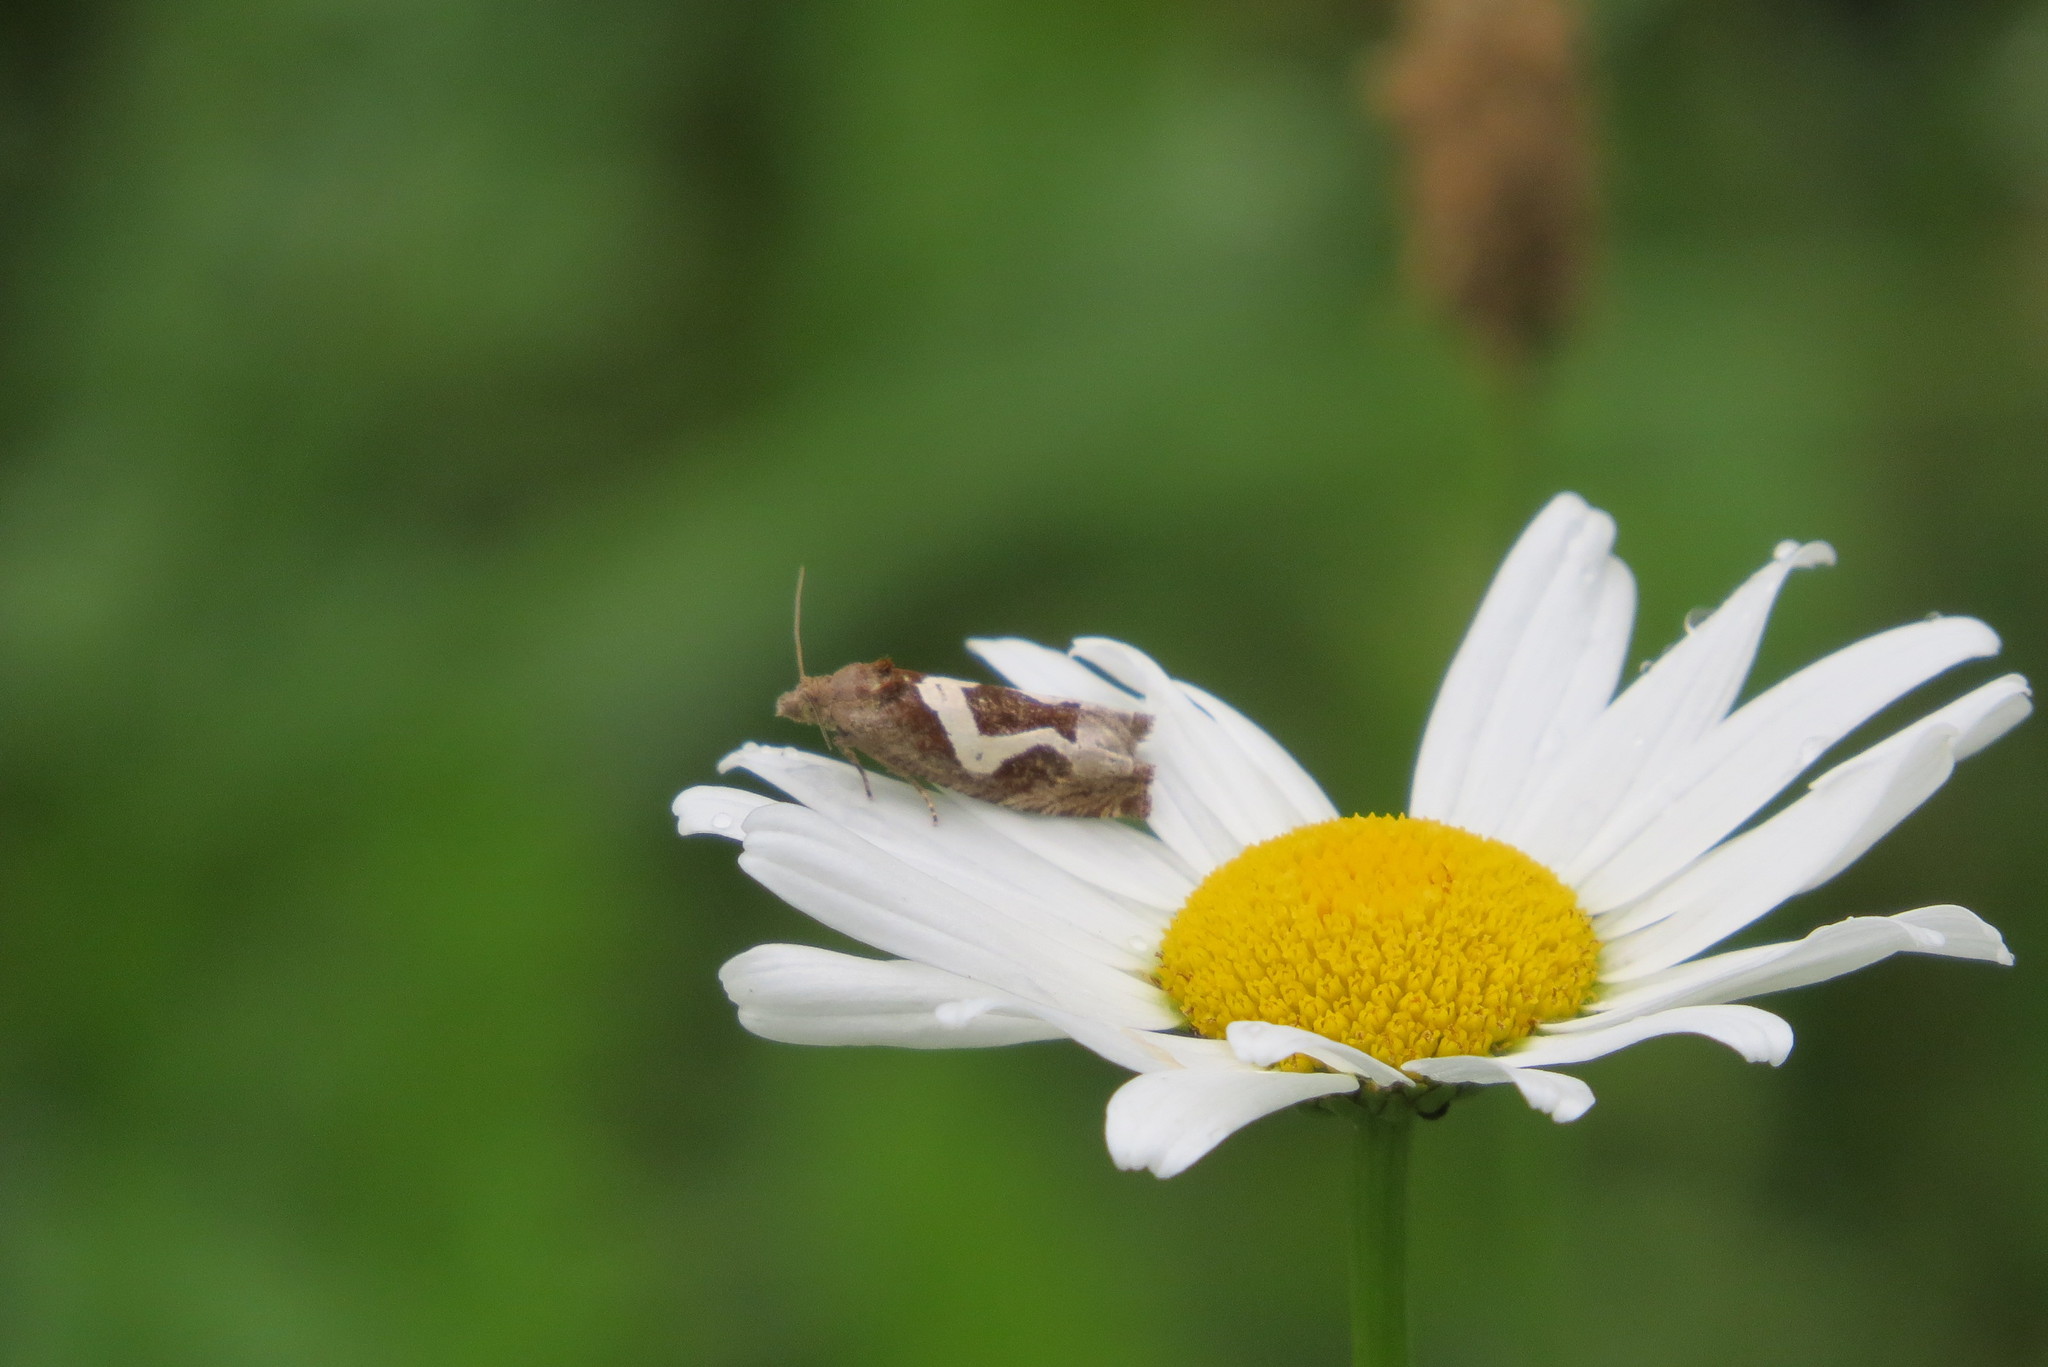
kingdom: Animalia
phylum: Arthropoda
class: Insecta
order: Lepidoptera
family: Tortricidae
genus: Epiblema
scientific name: Epiblema foenella
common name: White-foot bell
